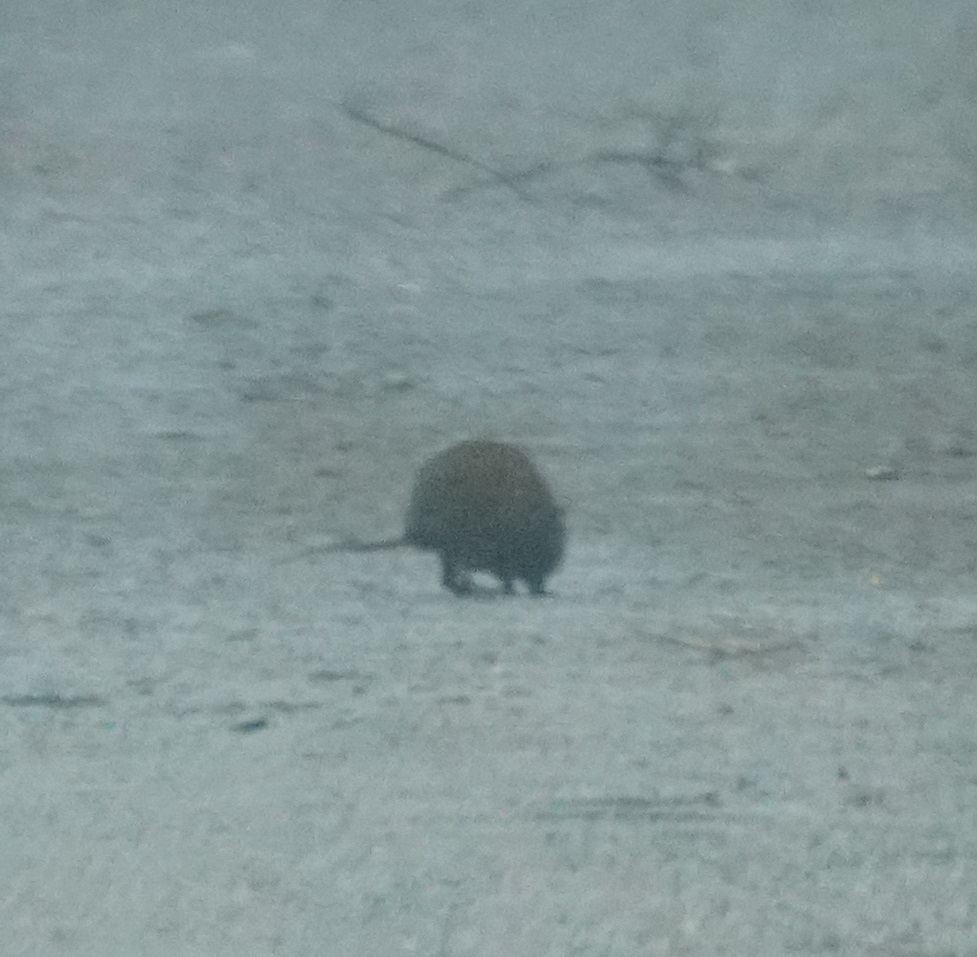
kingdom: Animalia
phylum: Chordata
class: Mammalia
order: Diprotodontia
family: Hypsiprymnodontidae
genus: Hypsiprymnodon
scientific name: Hypsiprymnodon moschatus
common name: Musky rat-kangaroo
